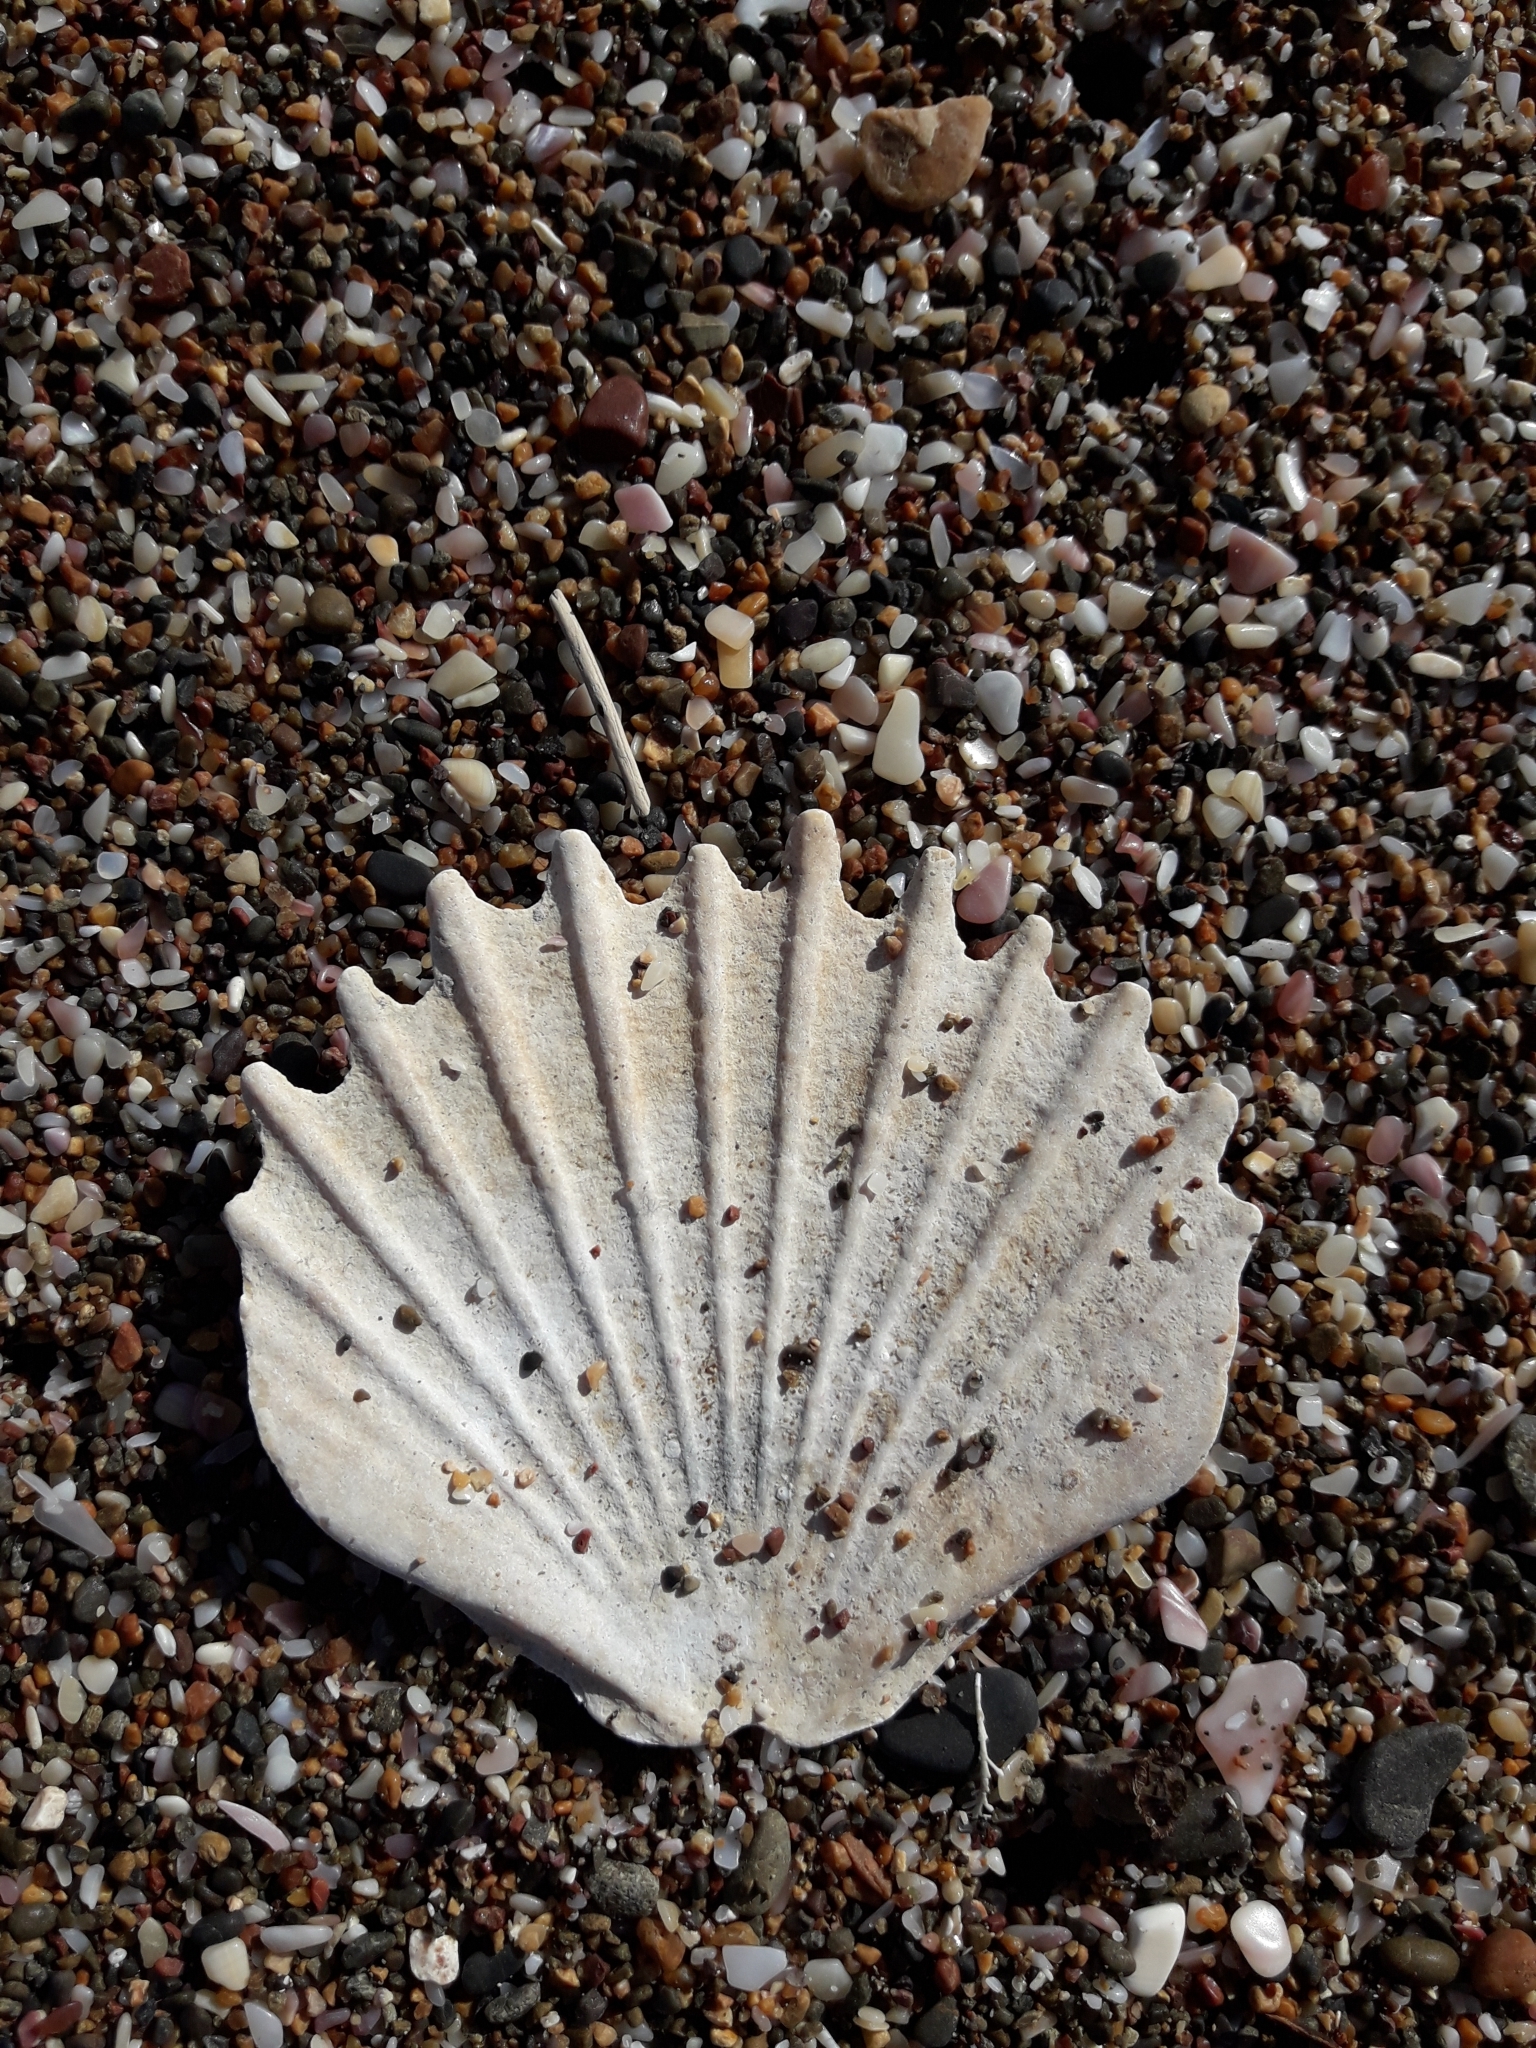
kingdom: Animalia
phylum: Mollusca
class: Bivalvia
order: Pectinida
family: Pectinidae
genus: Pecten
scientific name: Pecten novaezelandiae
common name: New zealand scallop
